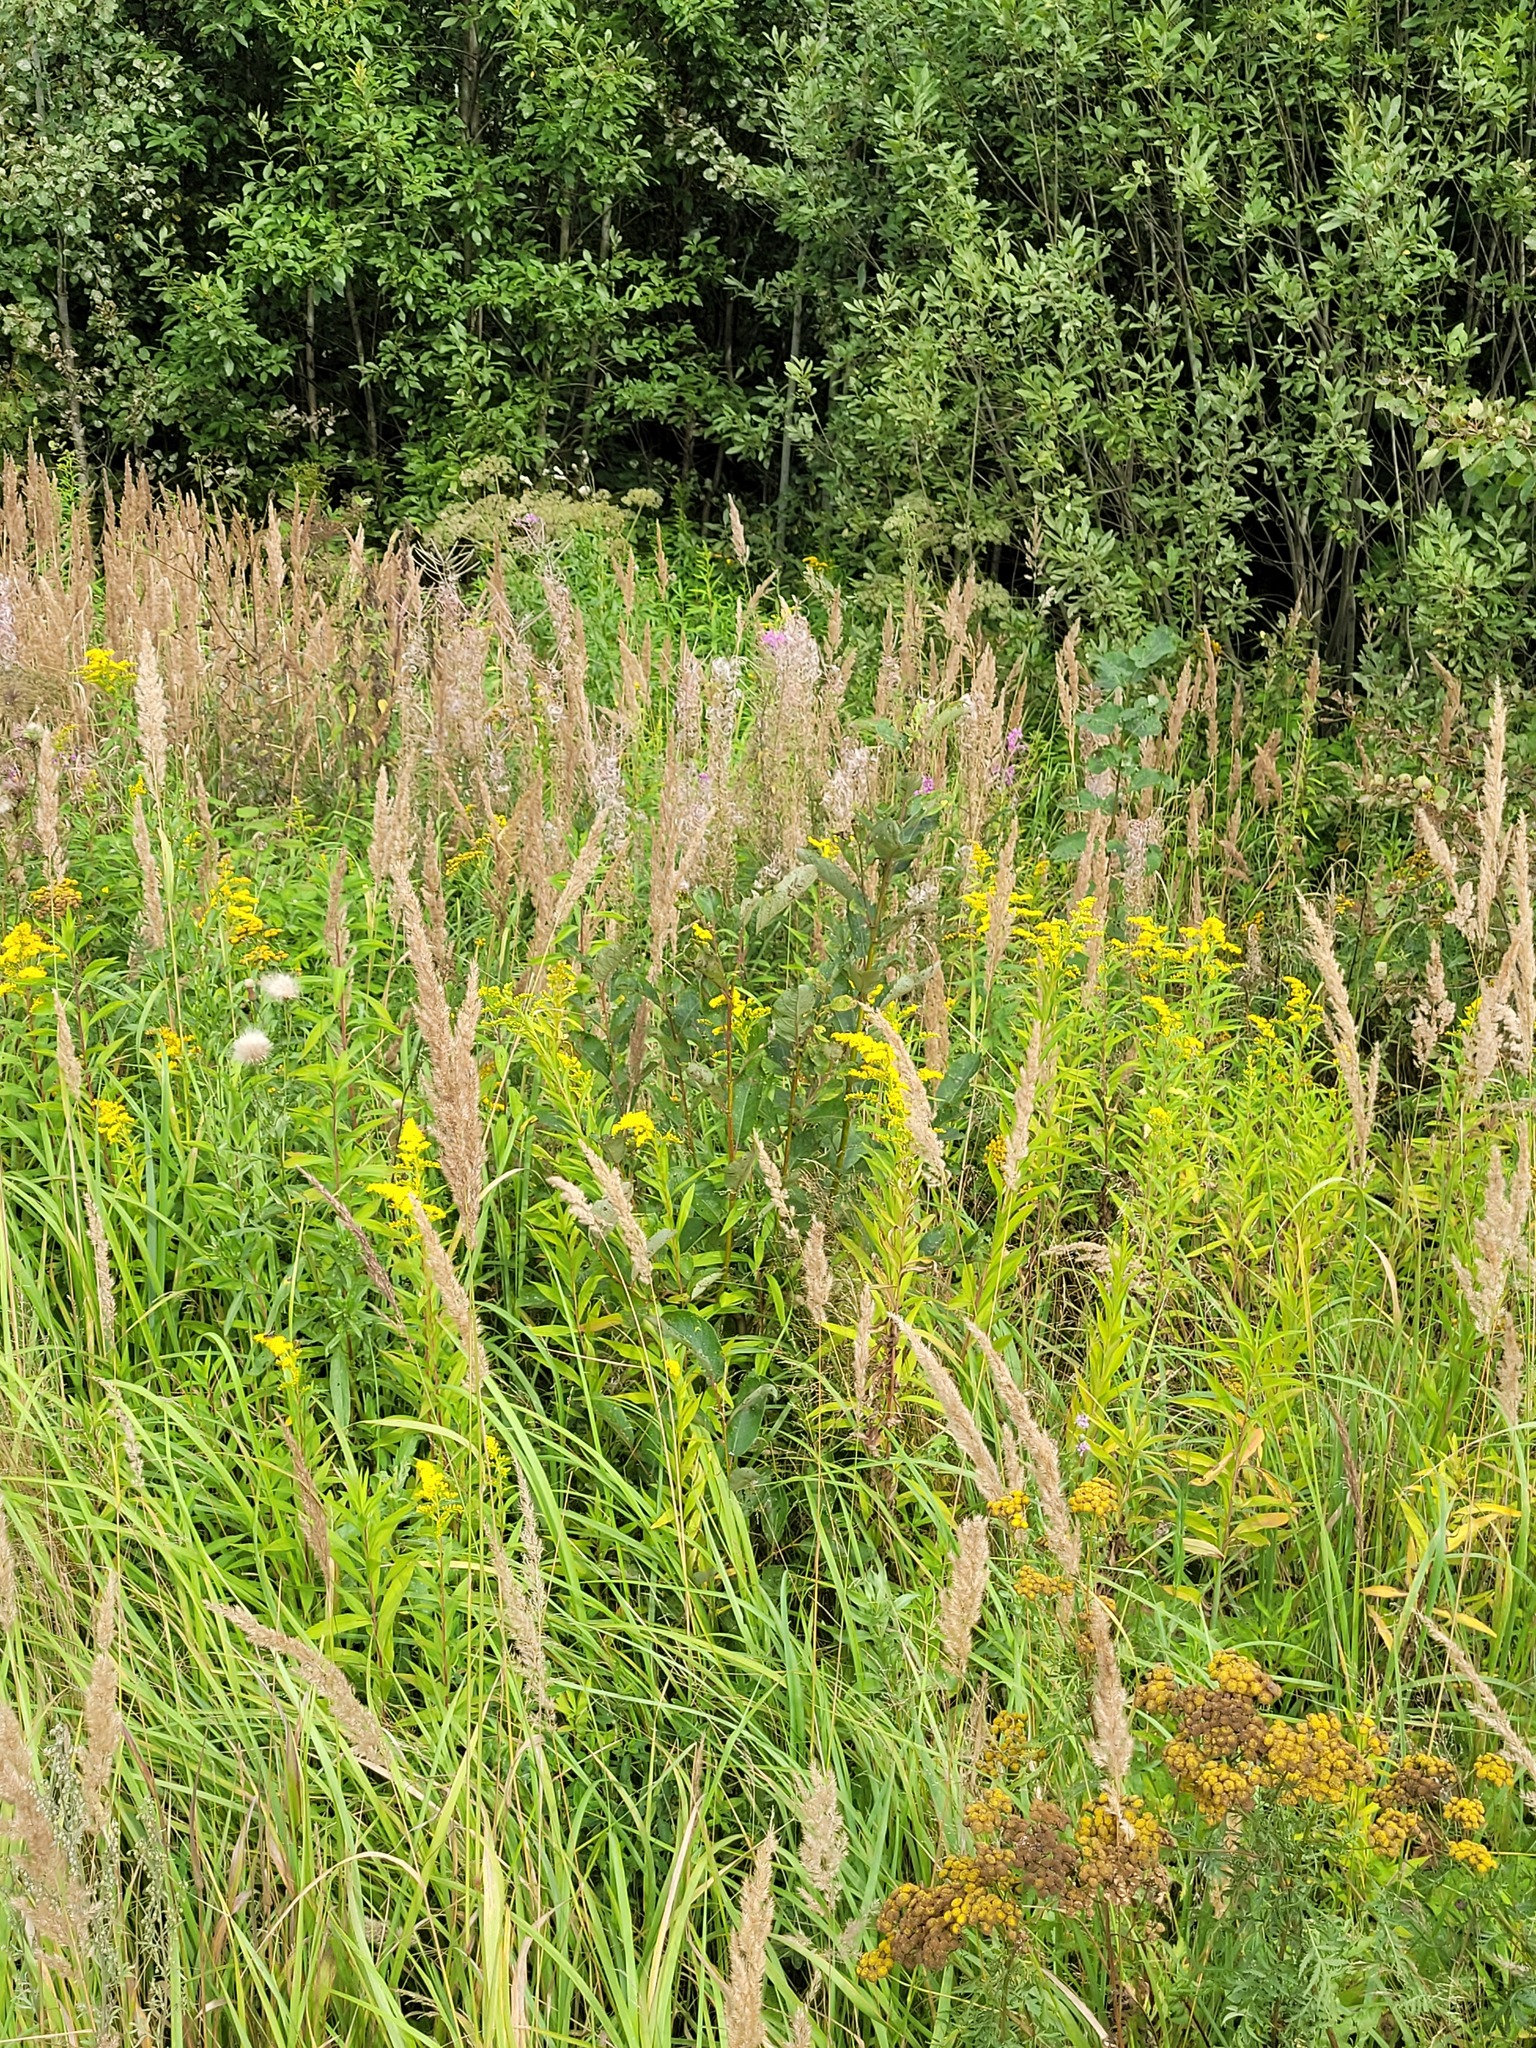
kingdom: Plantae
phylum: Tracheophyta
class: Magnoliopsida
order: Malpighiales
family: Salicaceae
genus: Salix
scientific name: Salix caprea
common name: Goat willow
